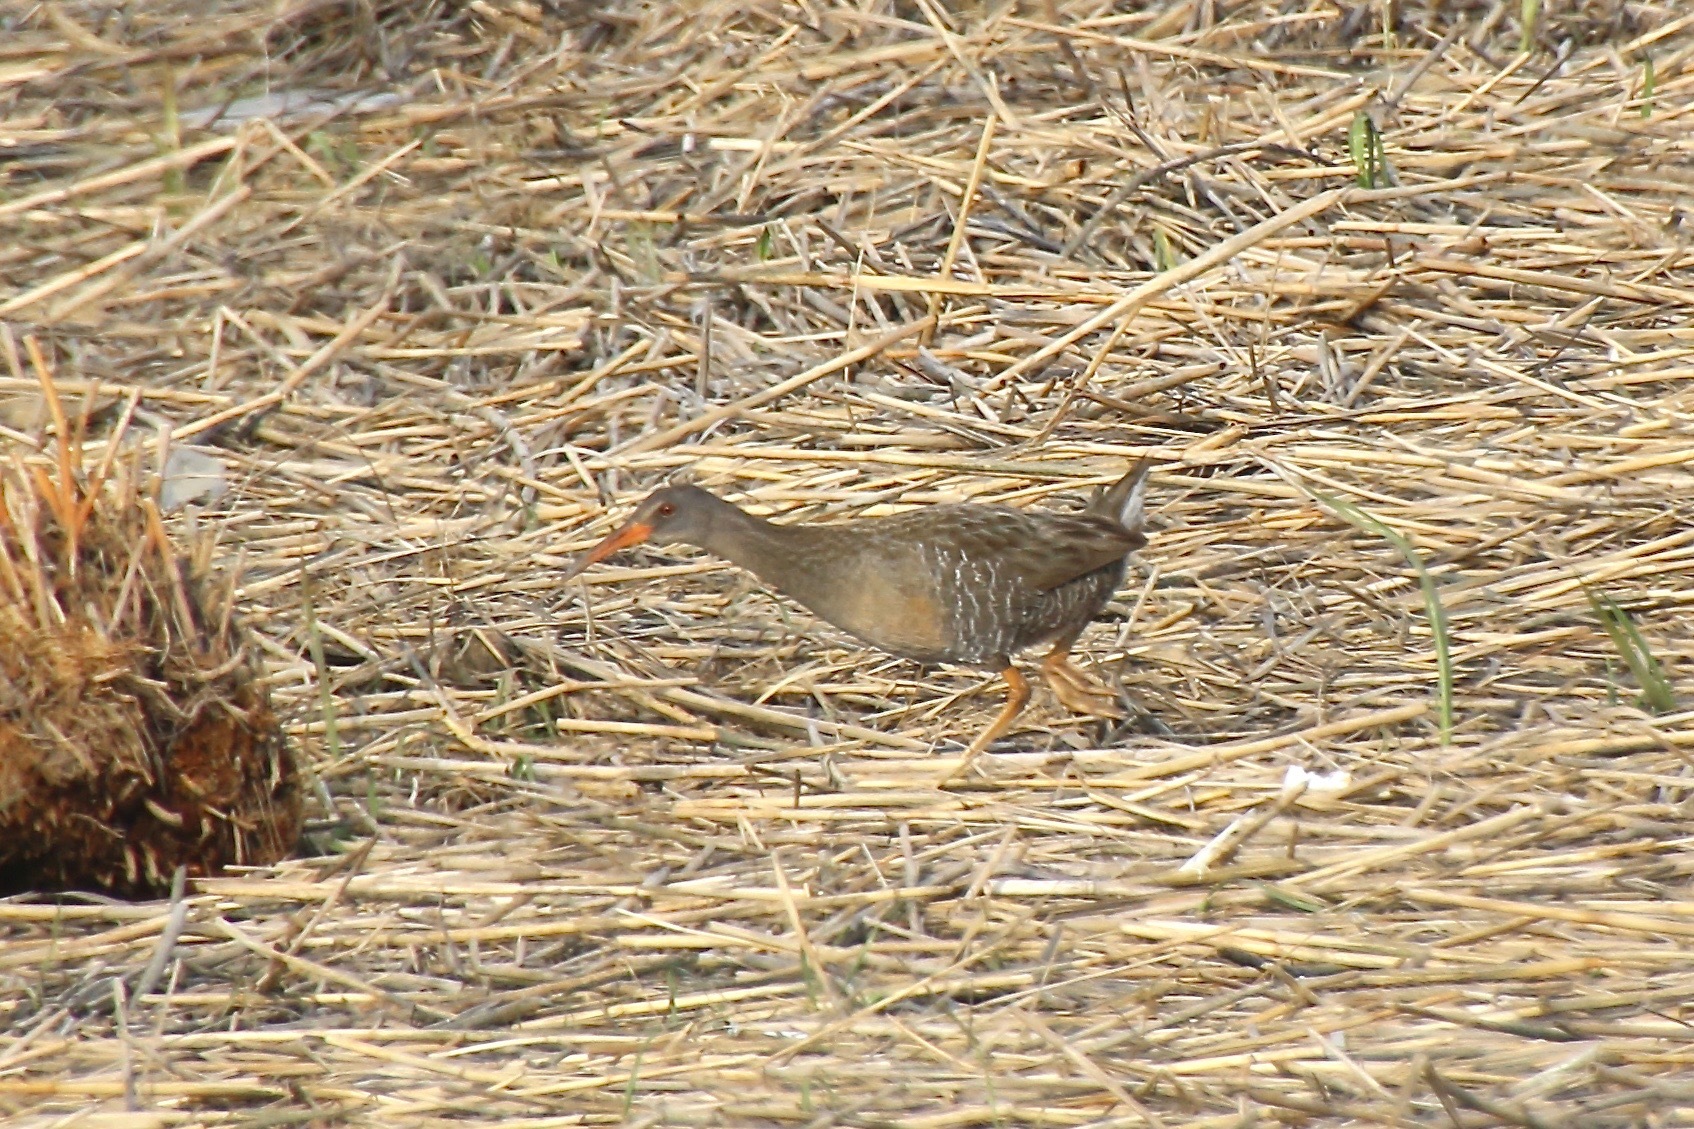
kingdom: Animalia
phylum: Chordata
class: Aves
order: Gruiformes
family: Rallidae
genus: Rallus
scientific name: Rallus crepitans
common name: Clapper rail
